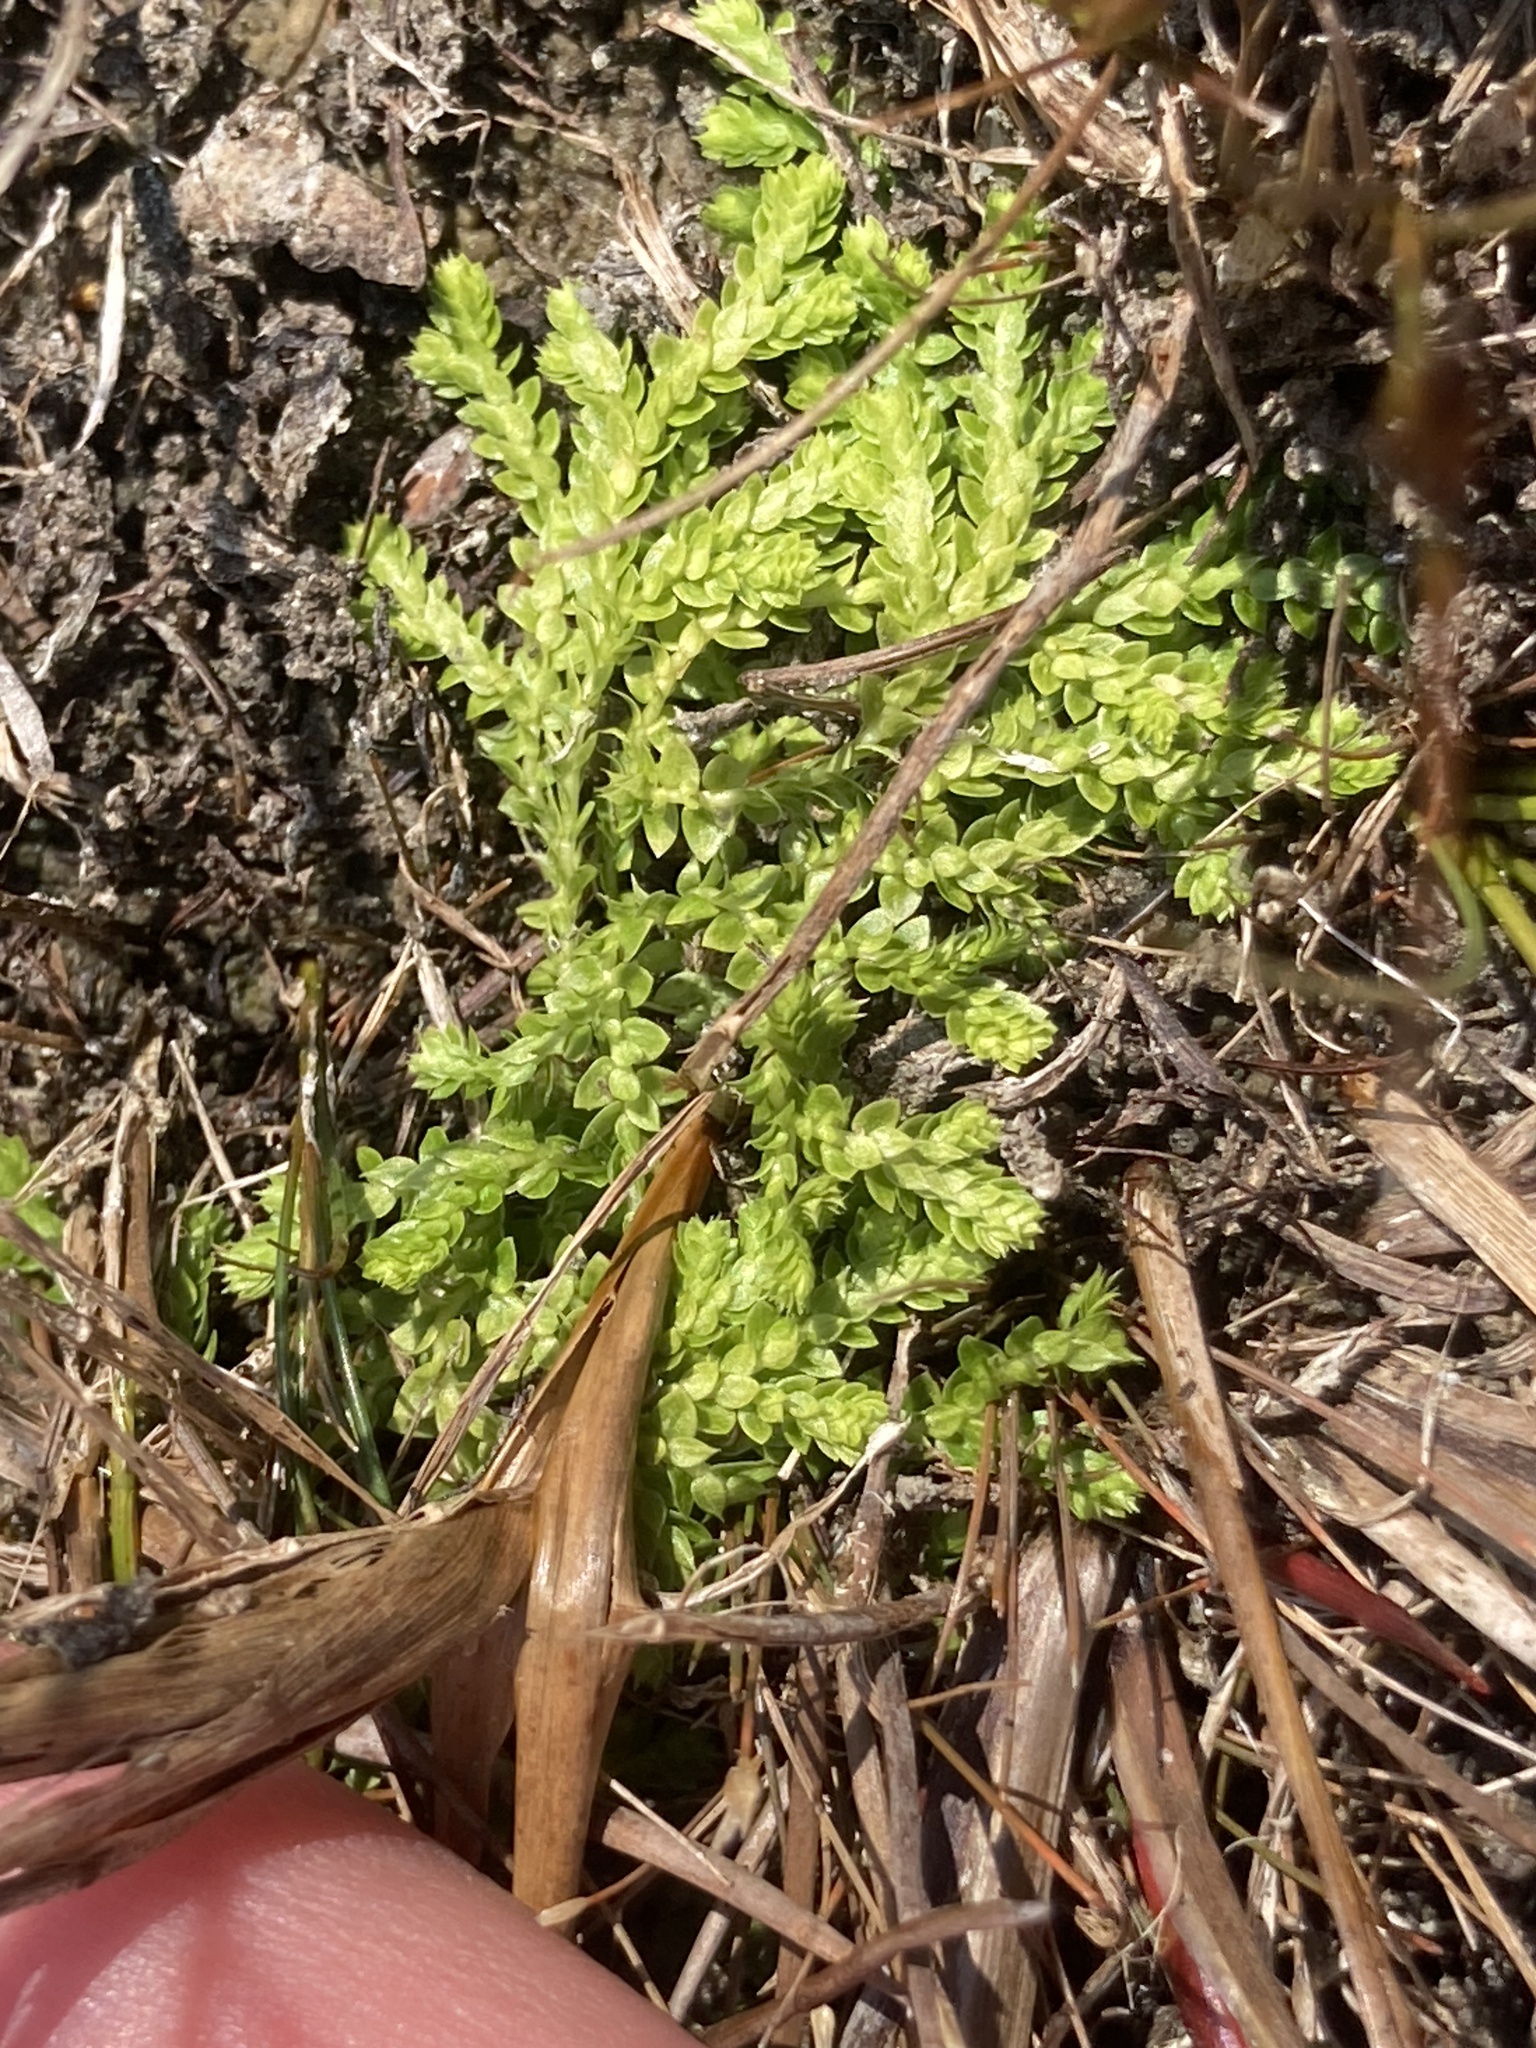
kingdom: Plantae
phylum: Tracheophyta
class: Lycopodiopsida
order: Selaginellales
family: Selaginellaceae
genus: Selaginella
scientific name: Selaginella eclipes
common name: Buck's meadow spikemoss
